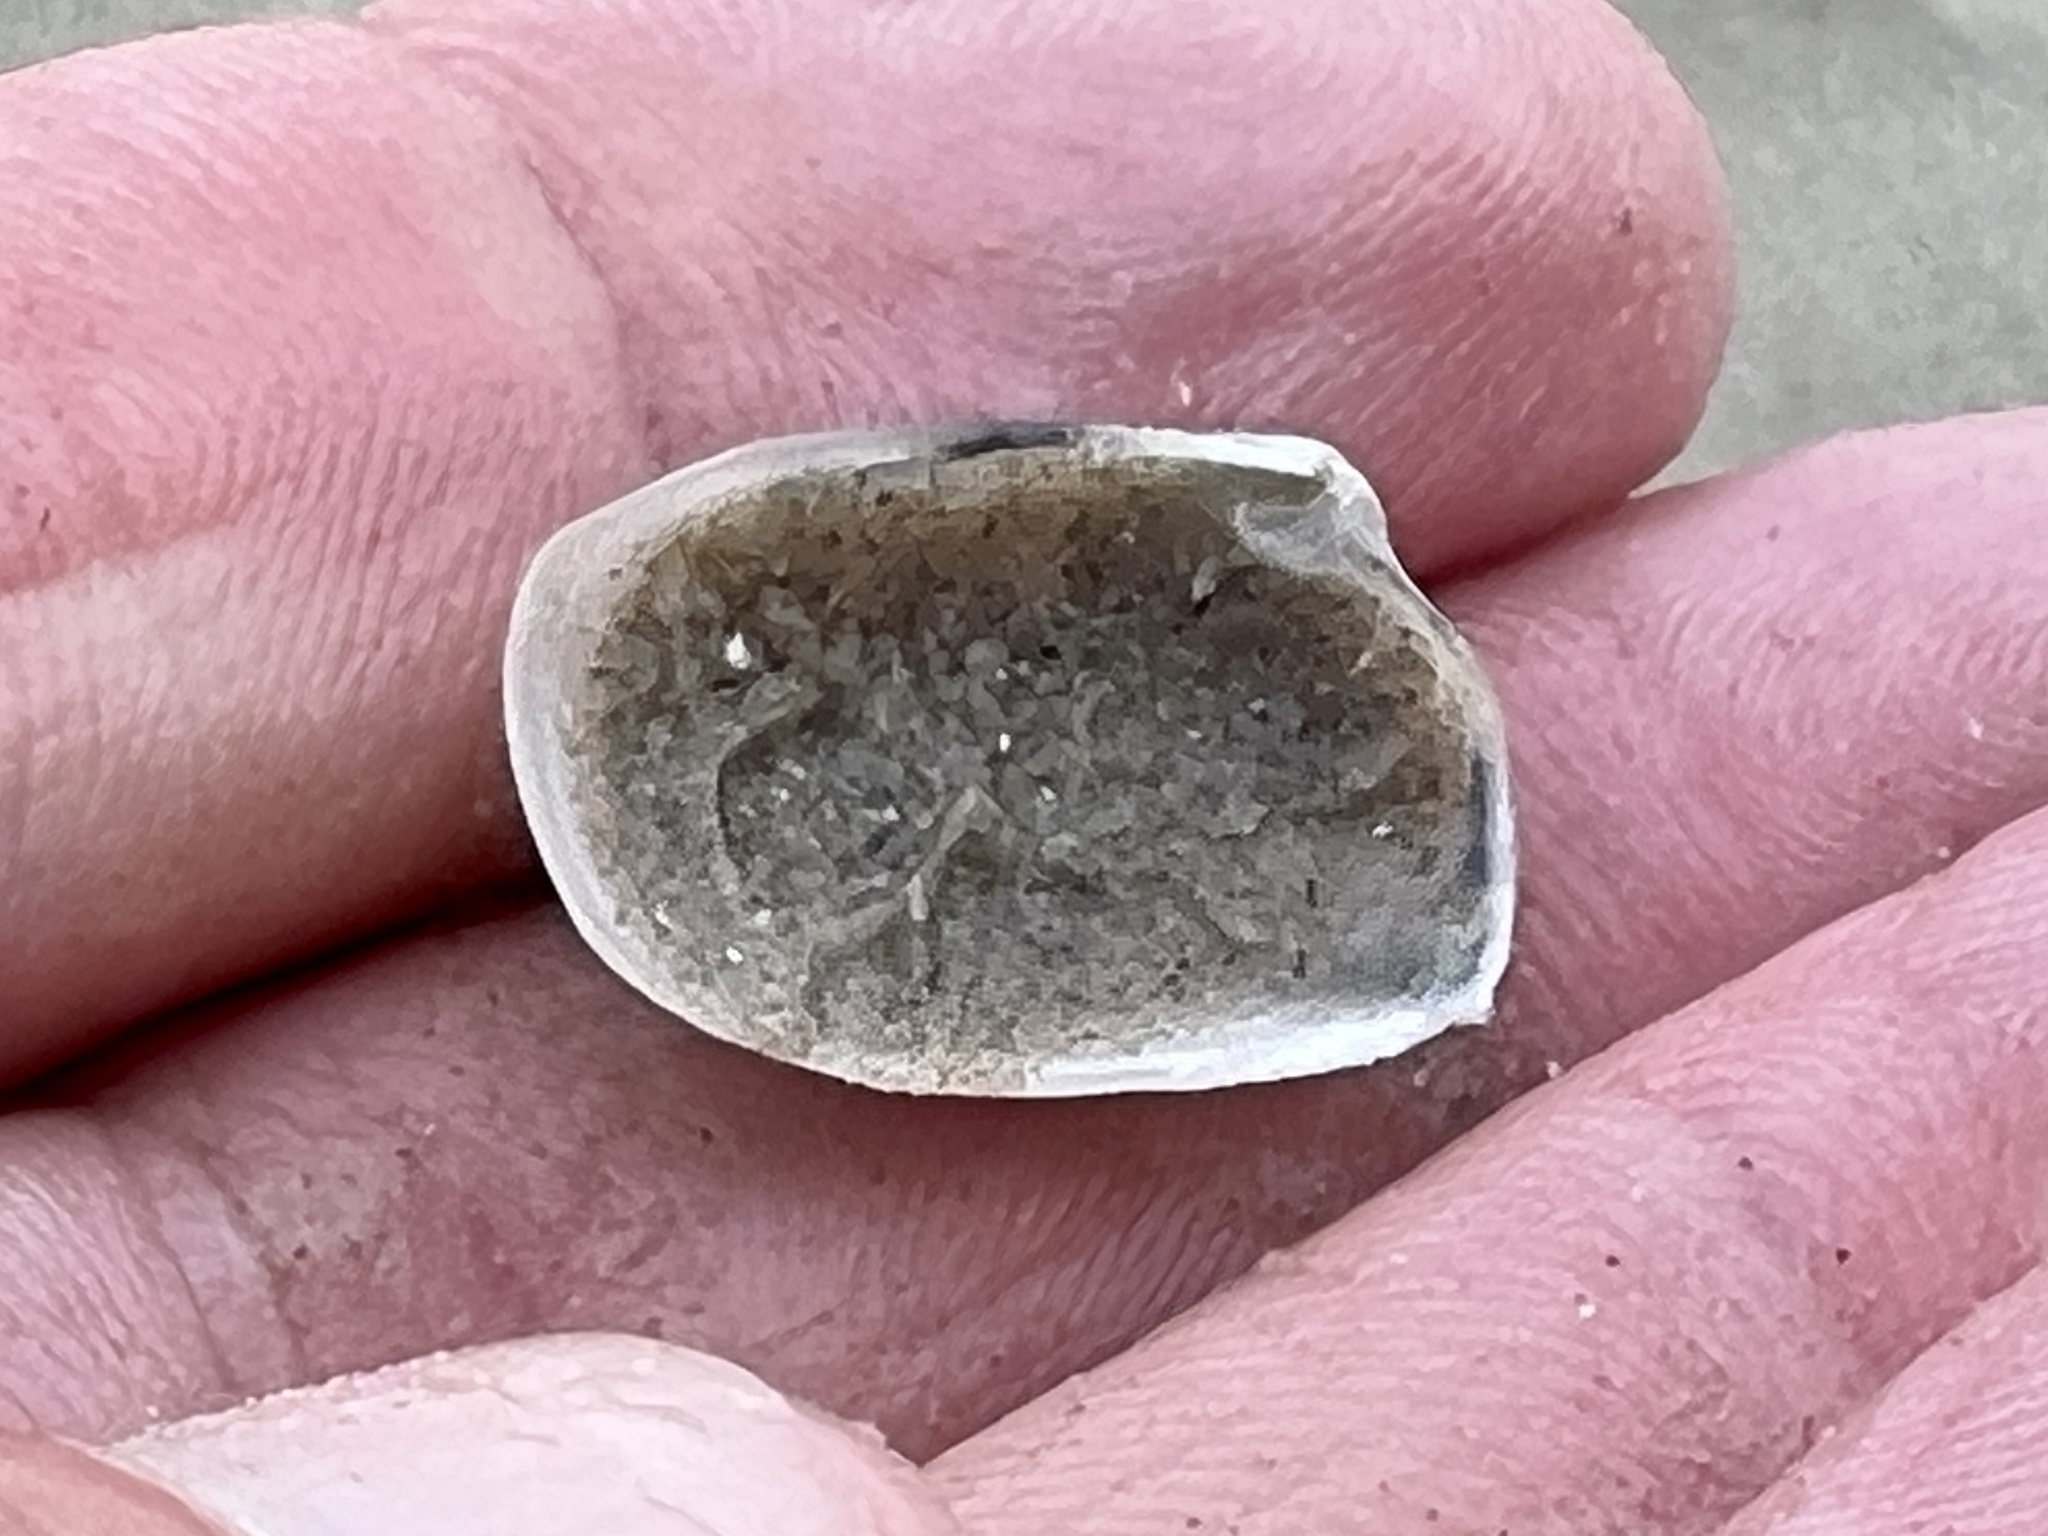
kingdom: Animalia
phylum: Mollusca
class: Bivalvia
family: Periplomatidae
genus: Periploma
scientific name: Periploma inequale
